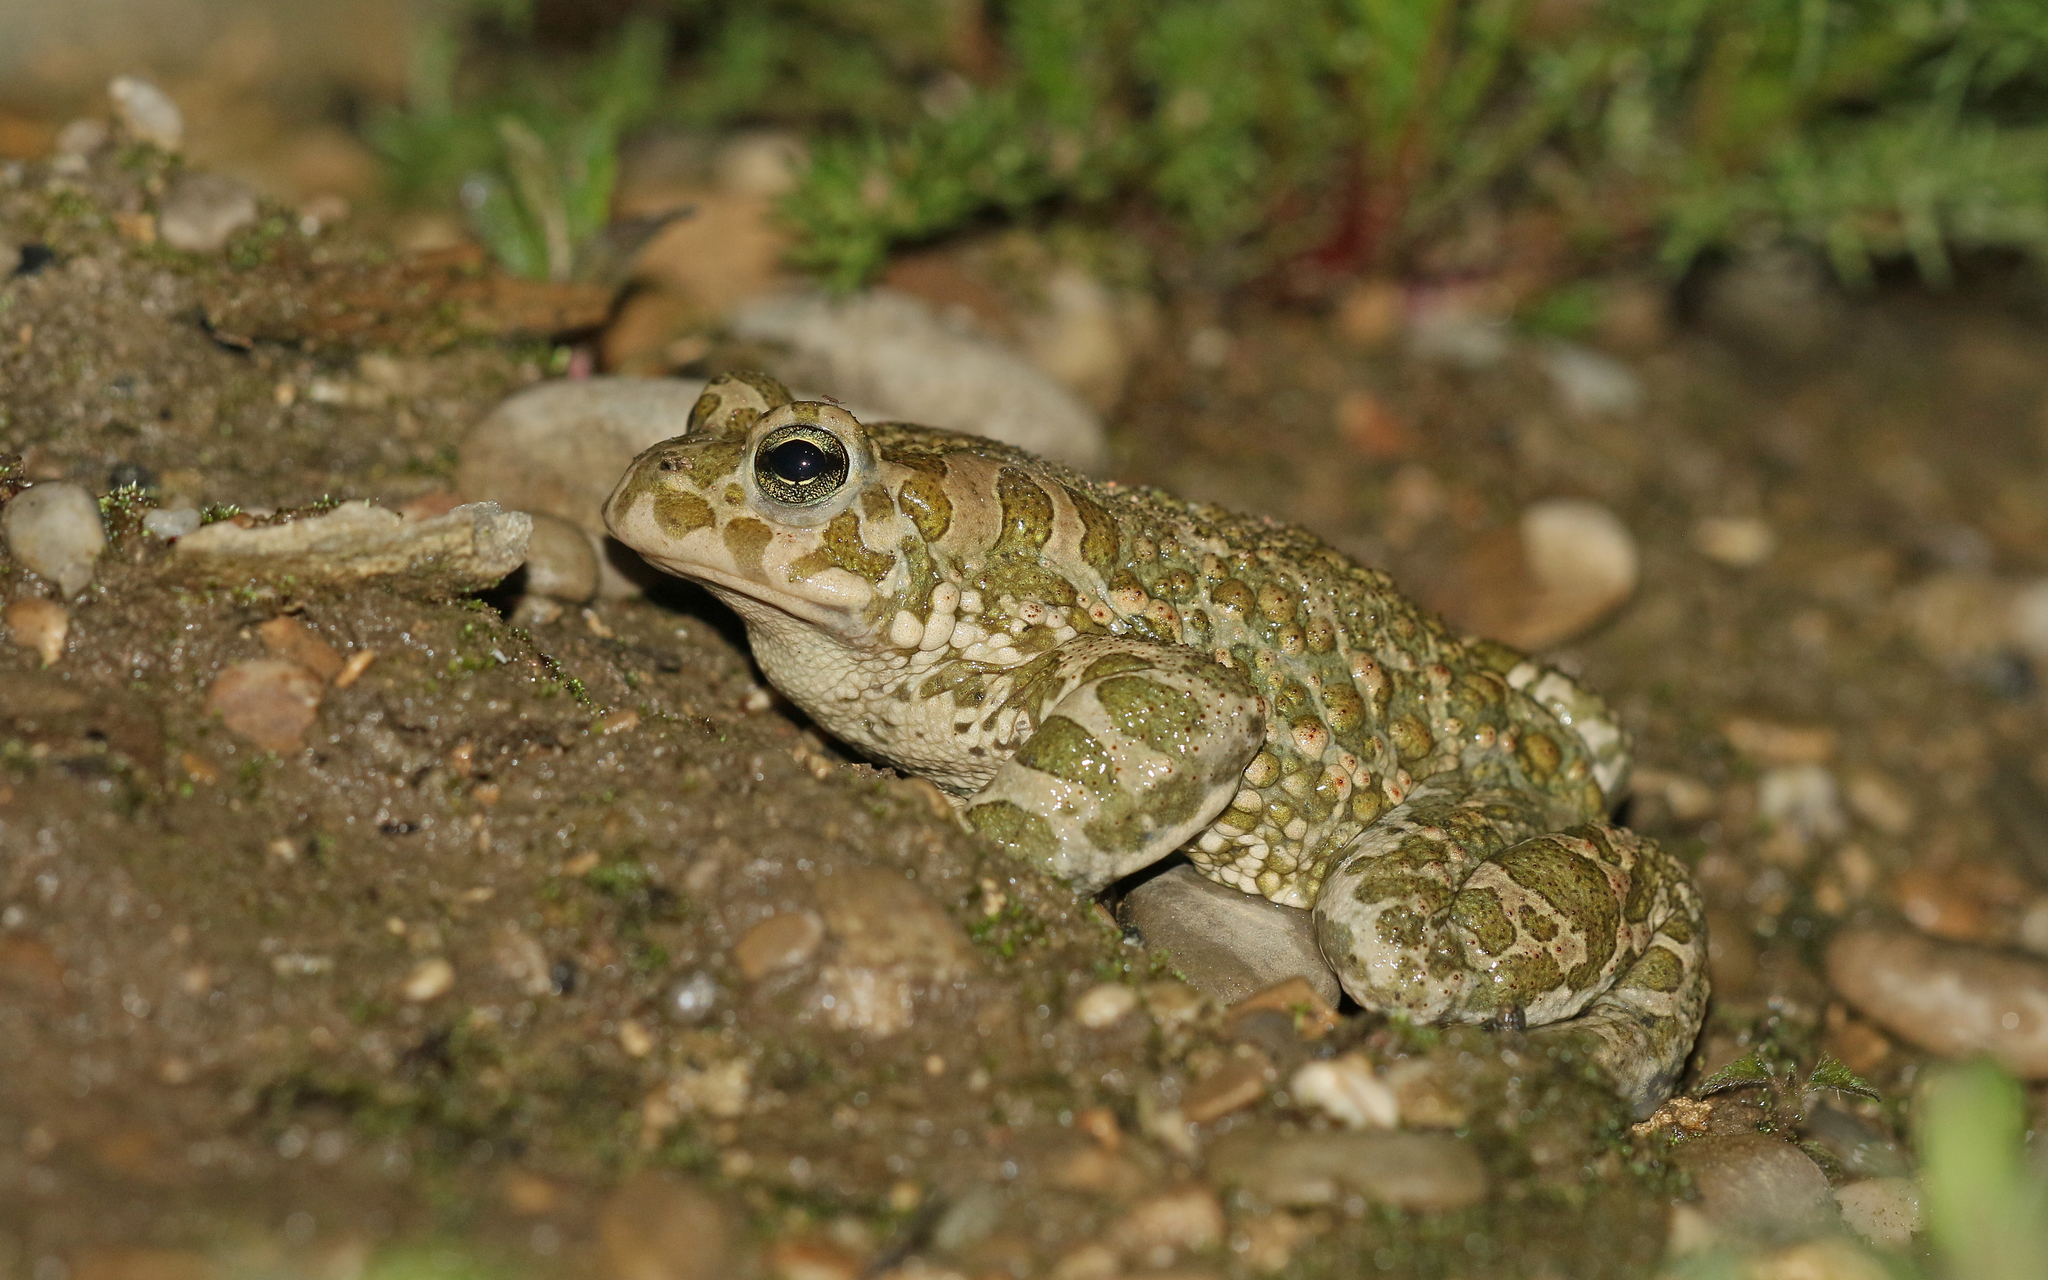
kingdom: Animalia
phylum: Chordata
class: Amphibia
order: Anura
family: Bufonidae
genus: Bufotes
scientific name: Bufotes viridis
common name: European green toad
